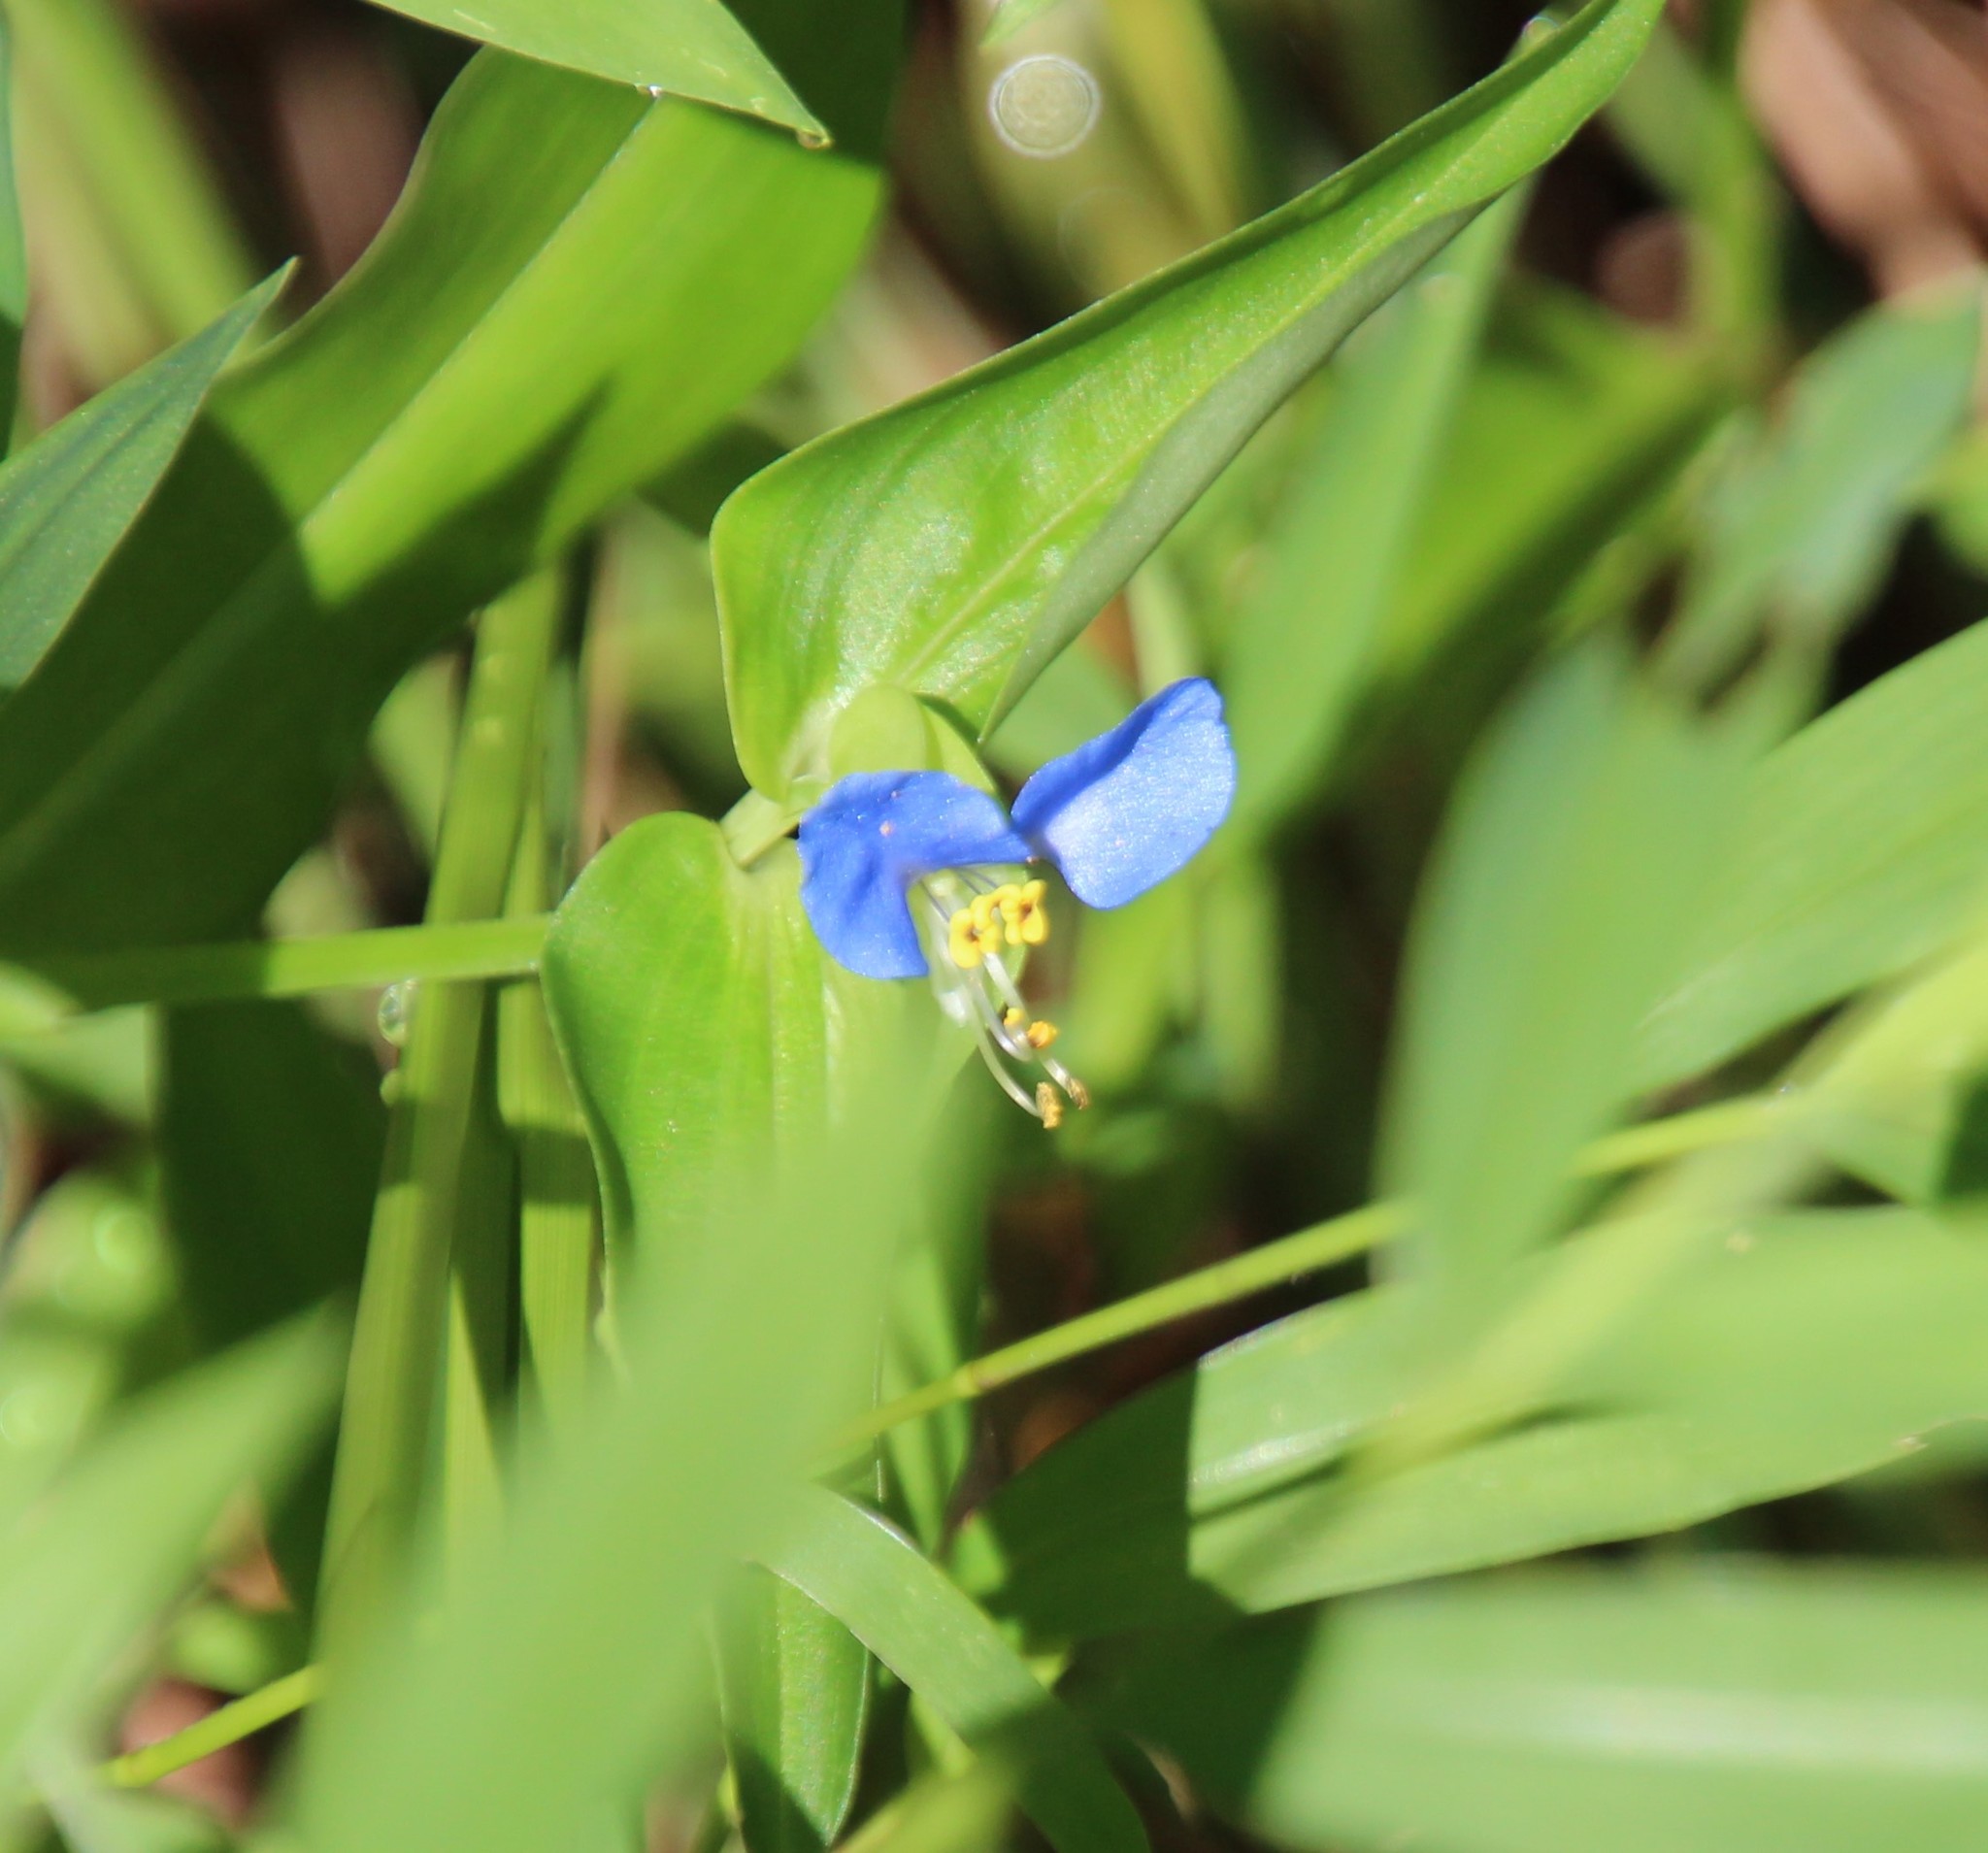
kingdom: Plantae
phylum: Tracheophyta
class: Liliopsida
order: Commelinales
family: Commelinaceae
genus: Commelina
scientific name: Commelina communis
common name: Asiatic dayflower
